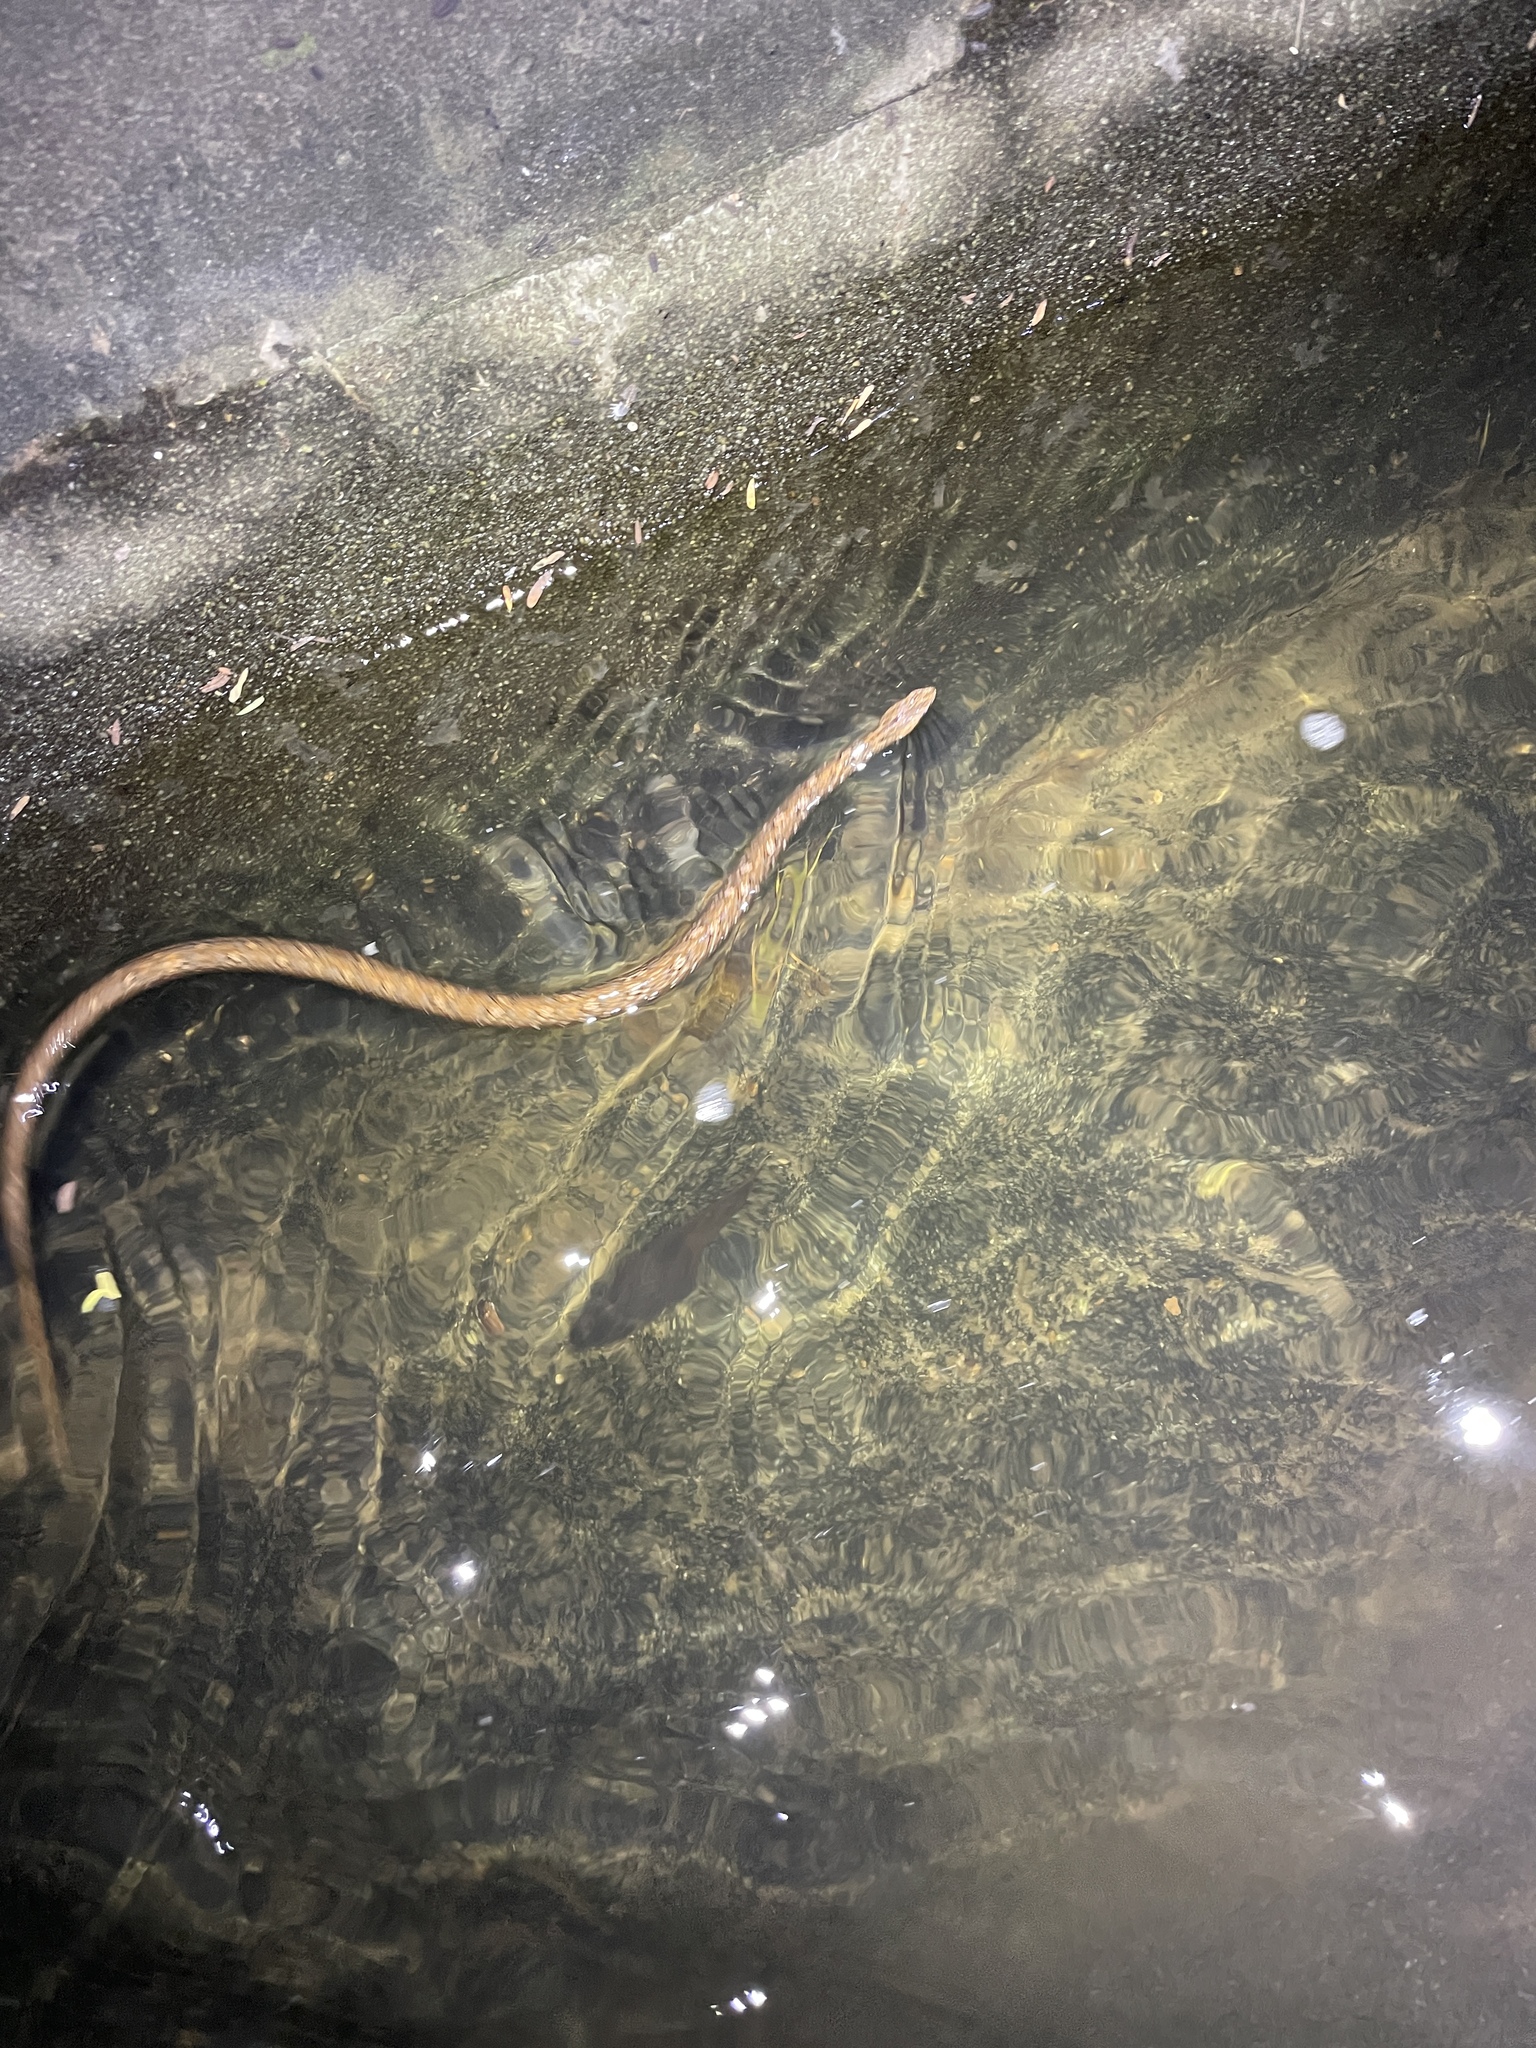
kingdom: Animalia
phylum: Chordata
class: Squamata
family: Pseudaspididae
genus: Psammodynastes
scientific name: Psammodynastes pulverulentus
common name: Common mock viper
